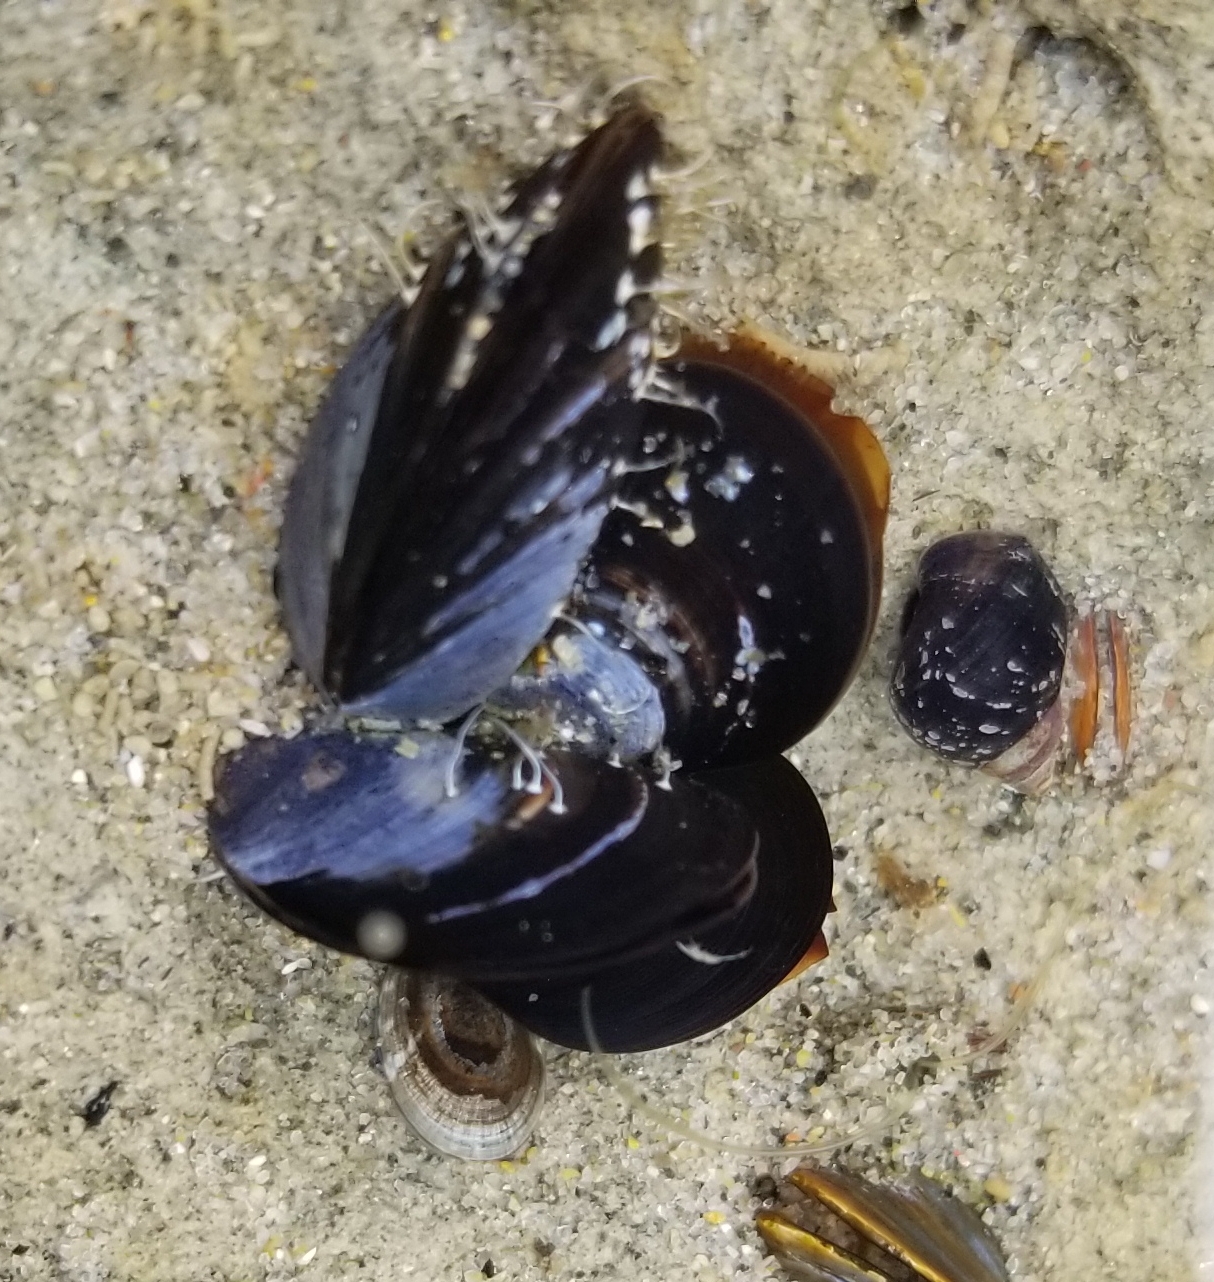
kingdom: Animalia
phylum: Mollusca
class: Bivalvia
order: Mytilida
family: Mytilidae
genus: Mytilus
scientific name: Mytilus californianus
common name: California mussel
